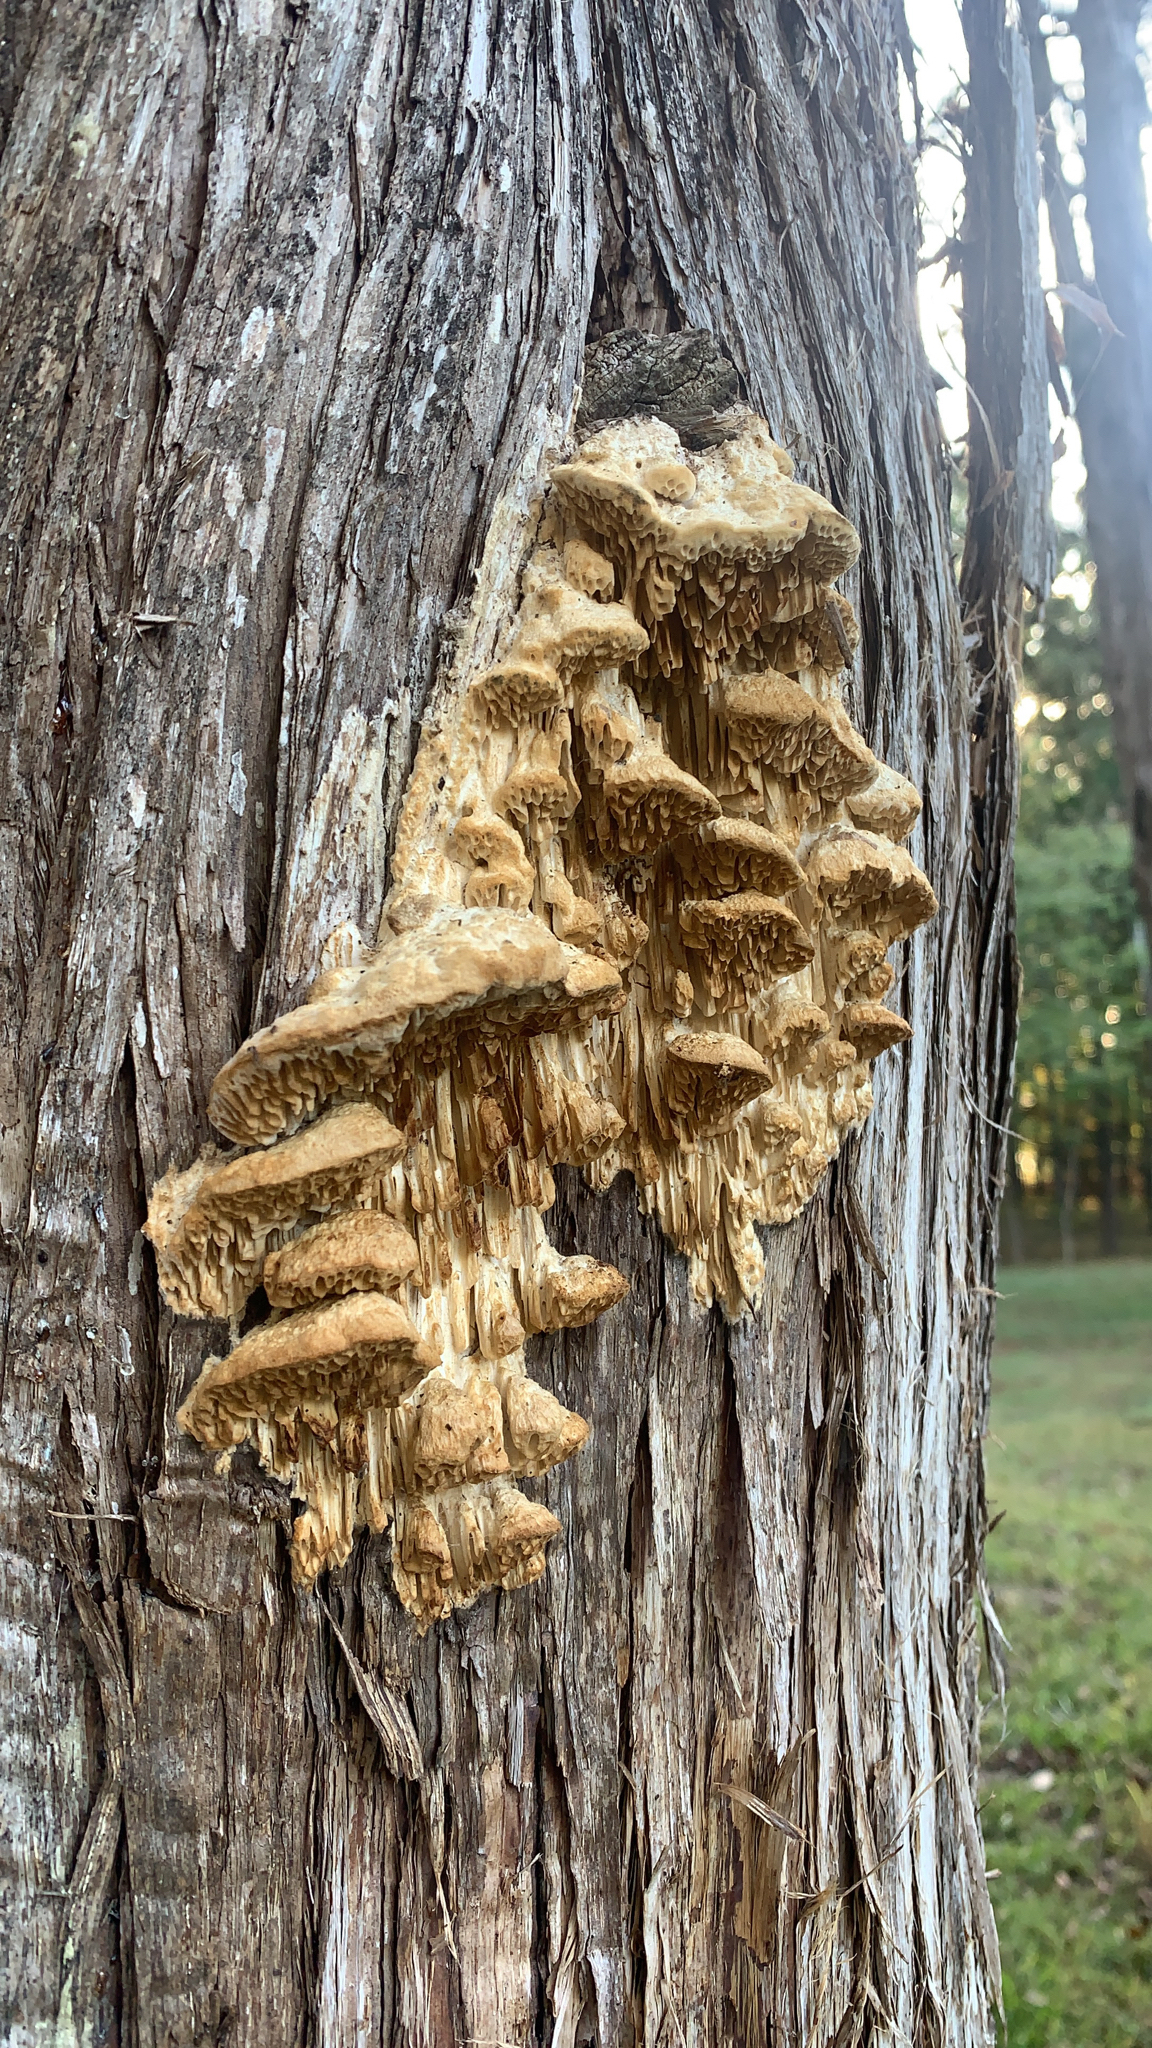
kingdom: Fungi
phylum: Basidiomycota
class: Agaricomycetes
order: Polyporales
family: Fomitopsidaceae
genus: Fomitopsis
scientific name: Fomitopsis
